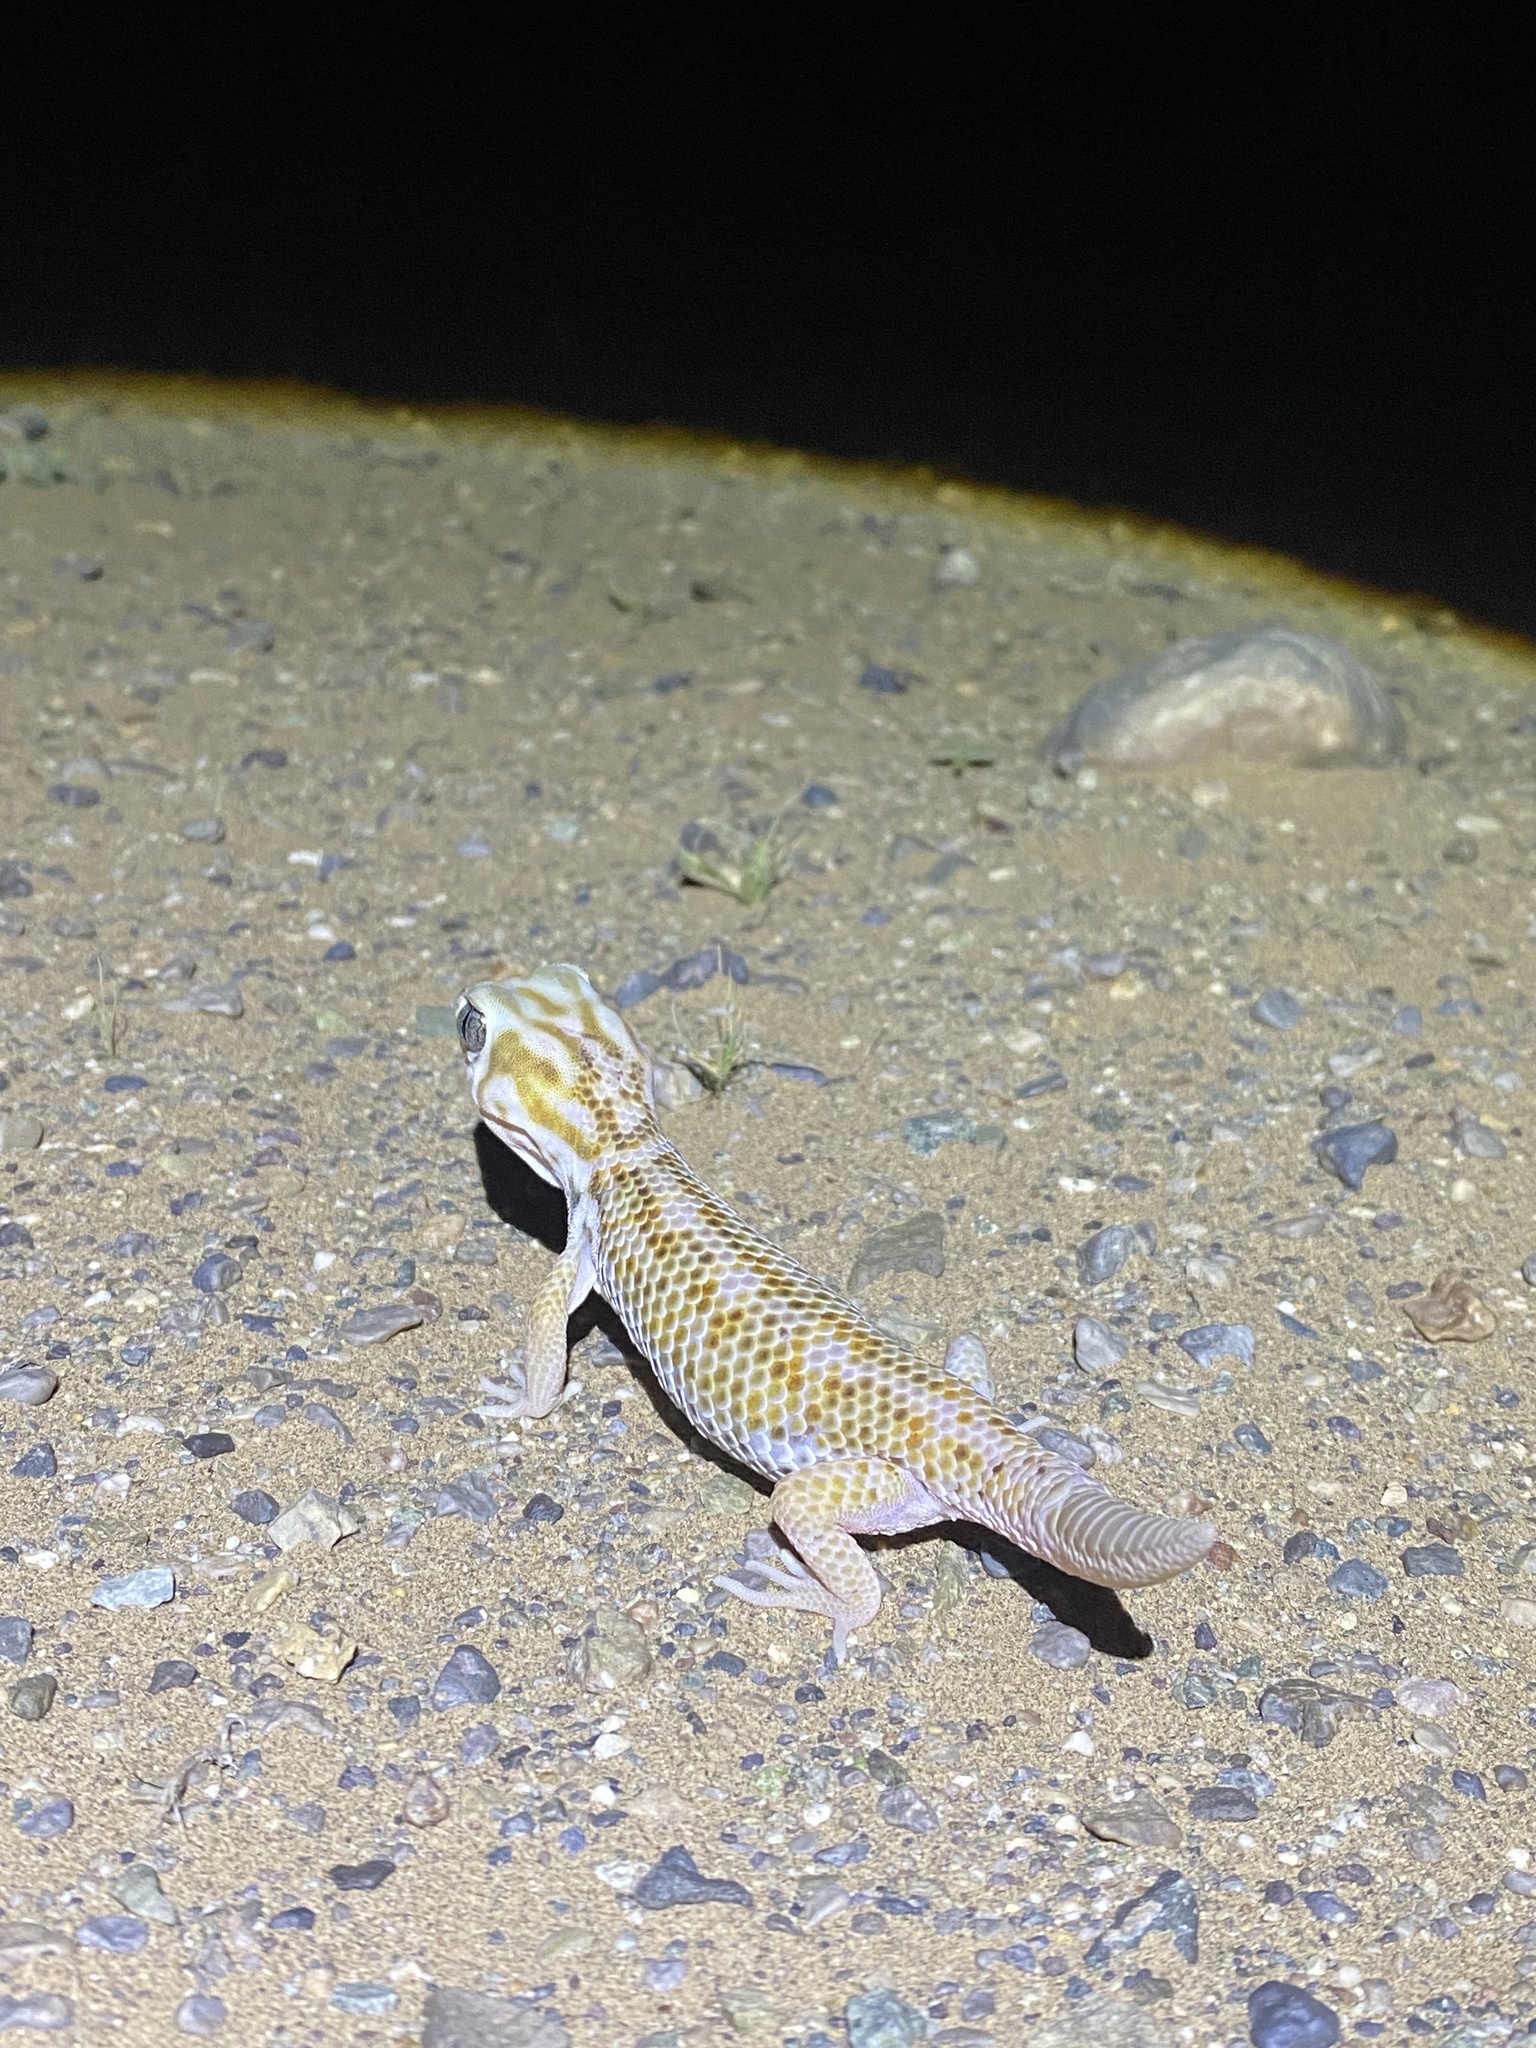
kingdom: Animalia
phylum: Chordata
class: Squamata
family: Sphaerodactylidae
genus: Teratoscincus
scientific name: Teratoscincus keyserlingii
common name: Frog-eyed gecko
